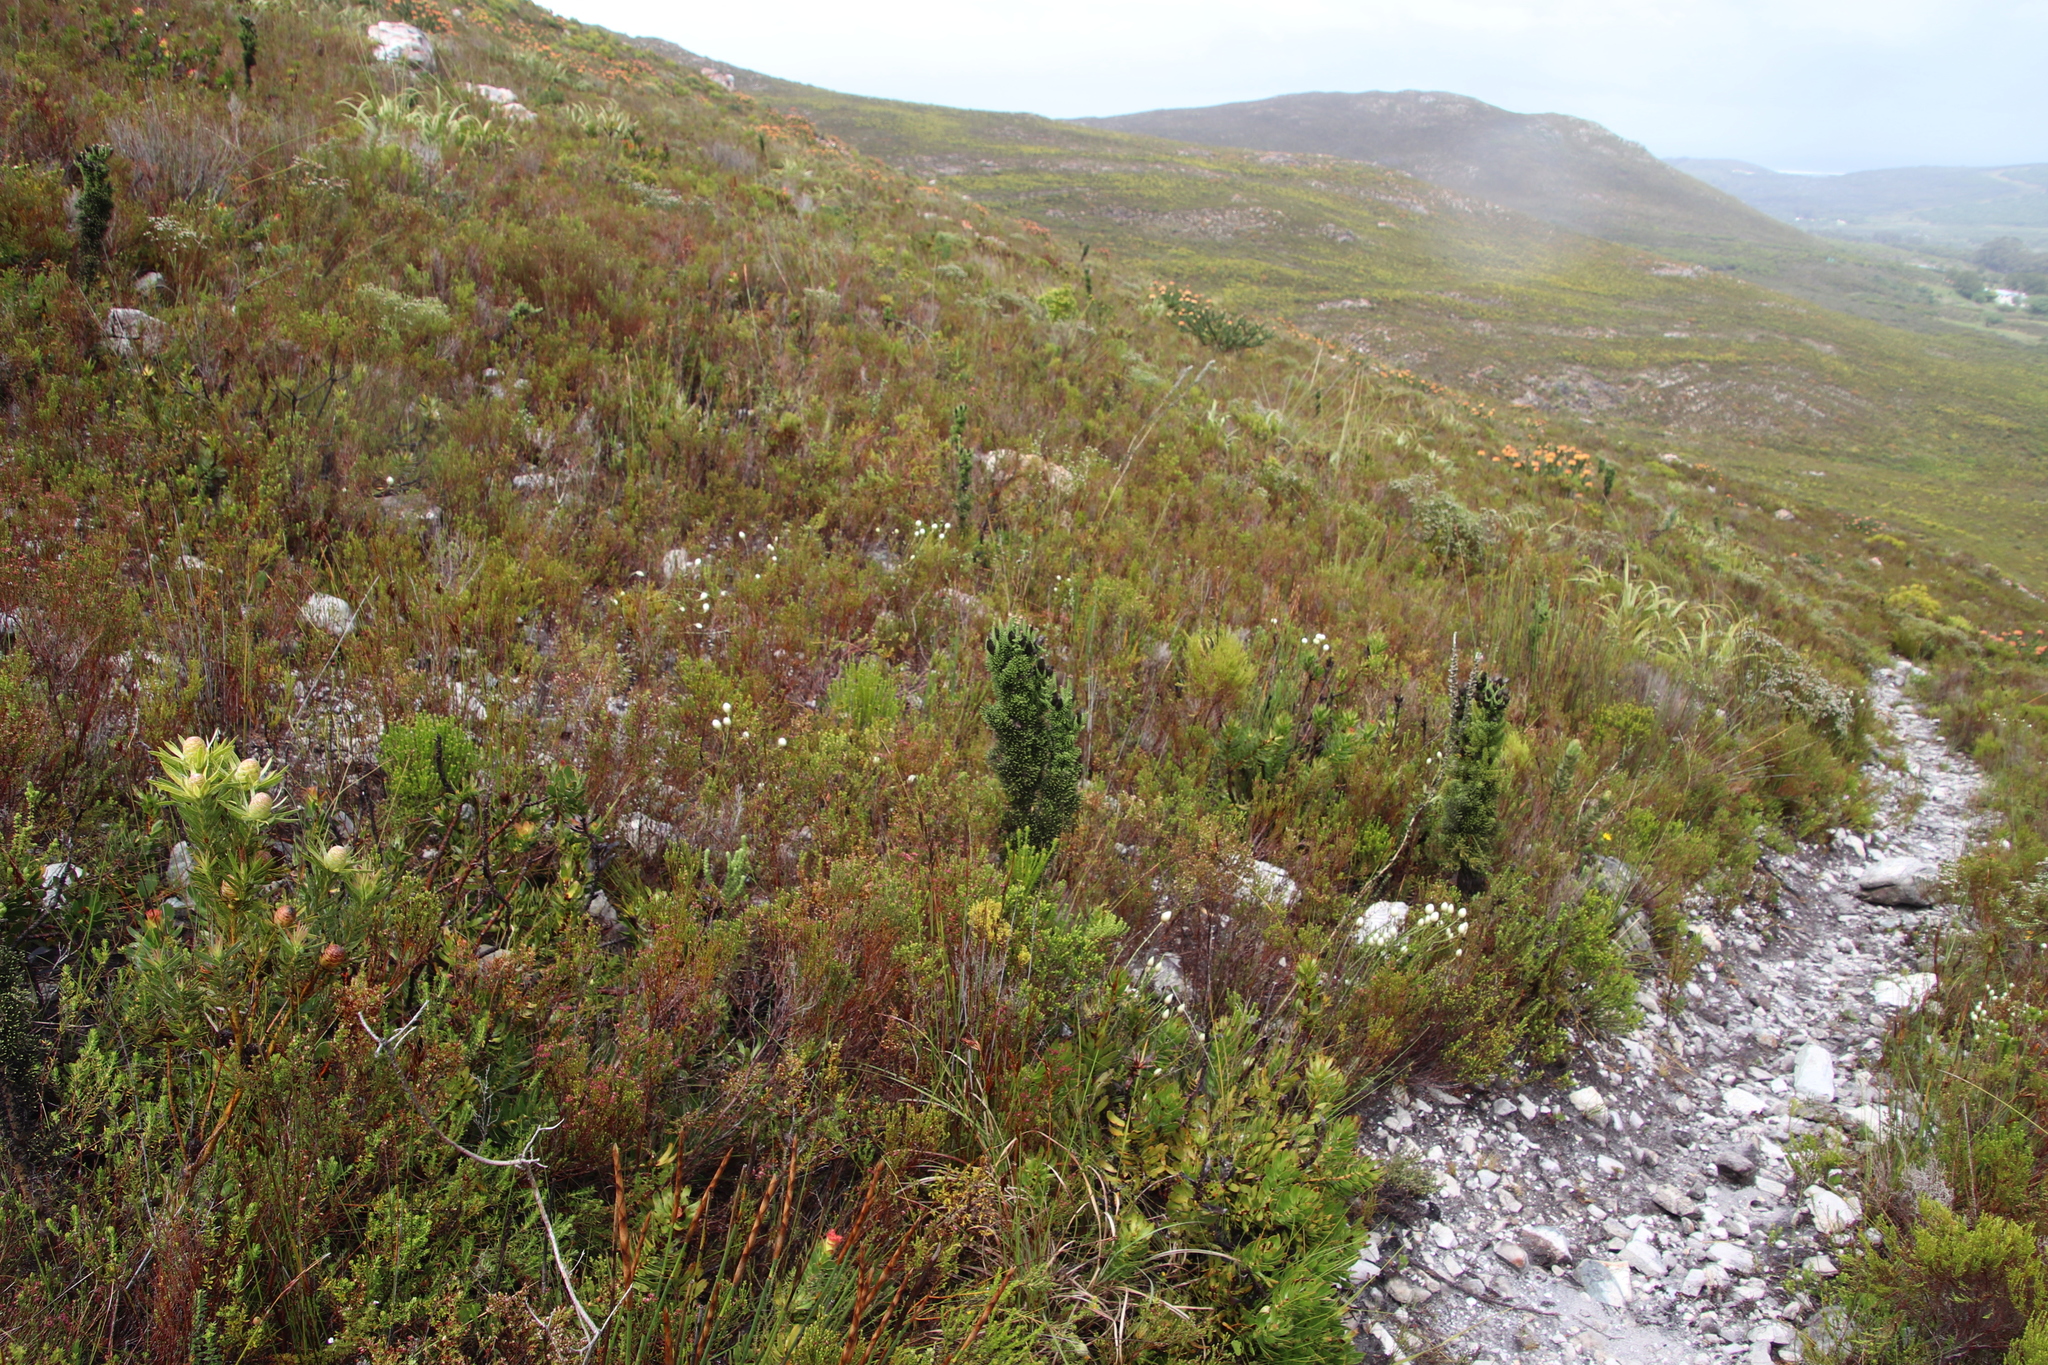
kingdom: Plantae
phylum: Tracheophyta
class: Magnoliopsida
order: Asterales
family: Asteraceae
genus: Phaenocoma
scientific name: Phaenocoma prolifera
